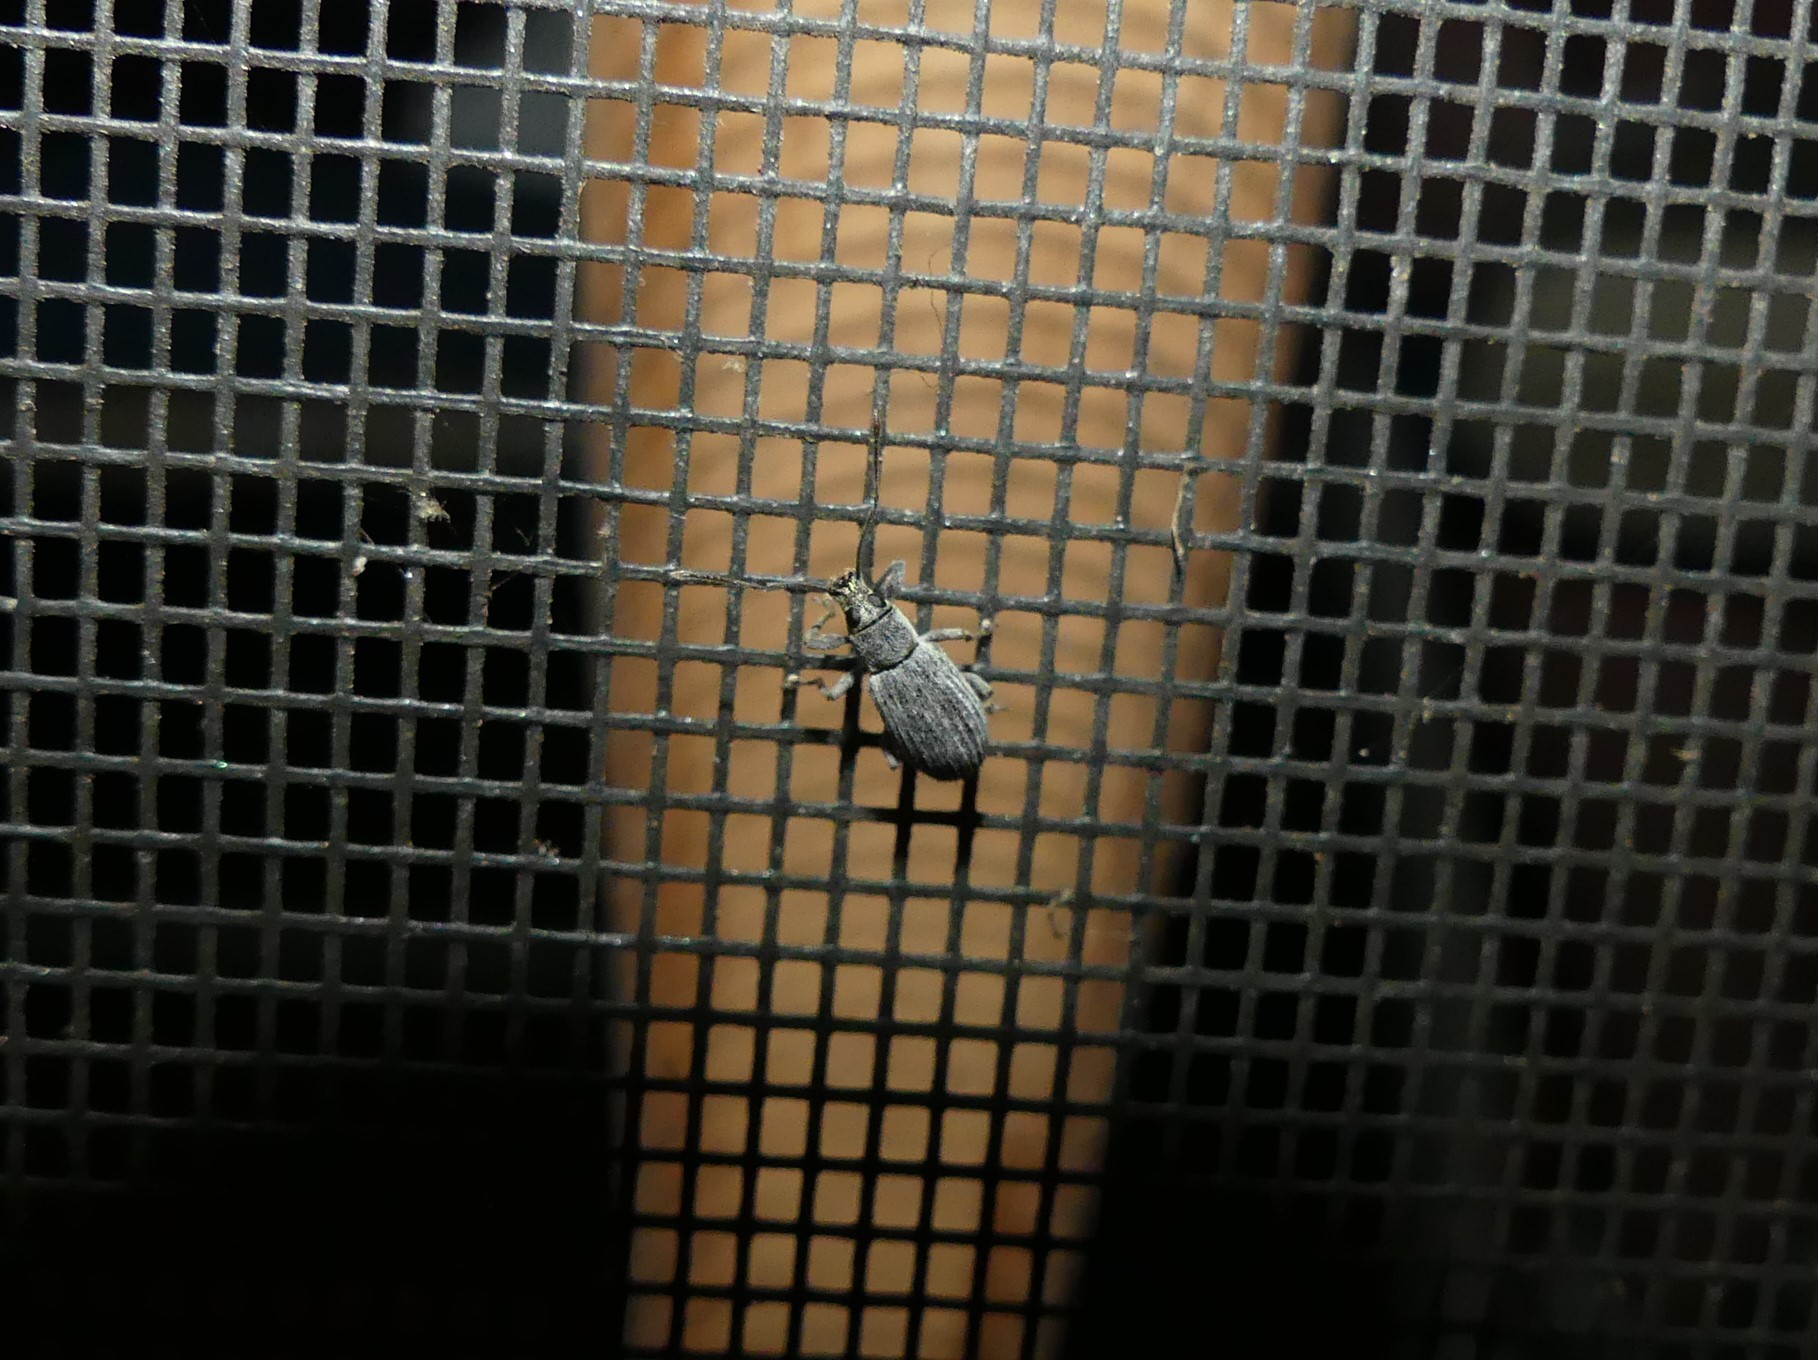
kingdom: Animalia
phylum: Arthropoda
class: Insecta
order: Coleoptera
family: Curculionidae
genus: Cyrtepistomus
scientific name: Cyrtepistomus castaneus
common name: Weevil
